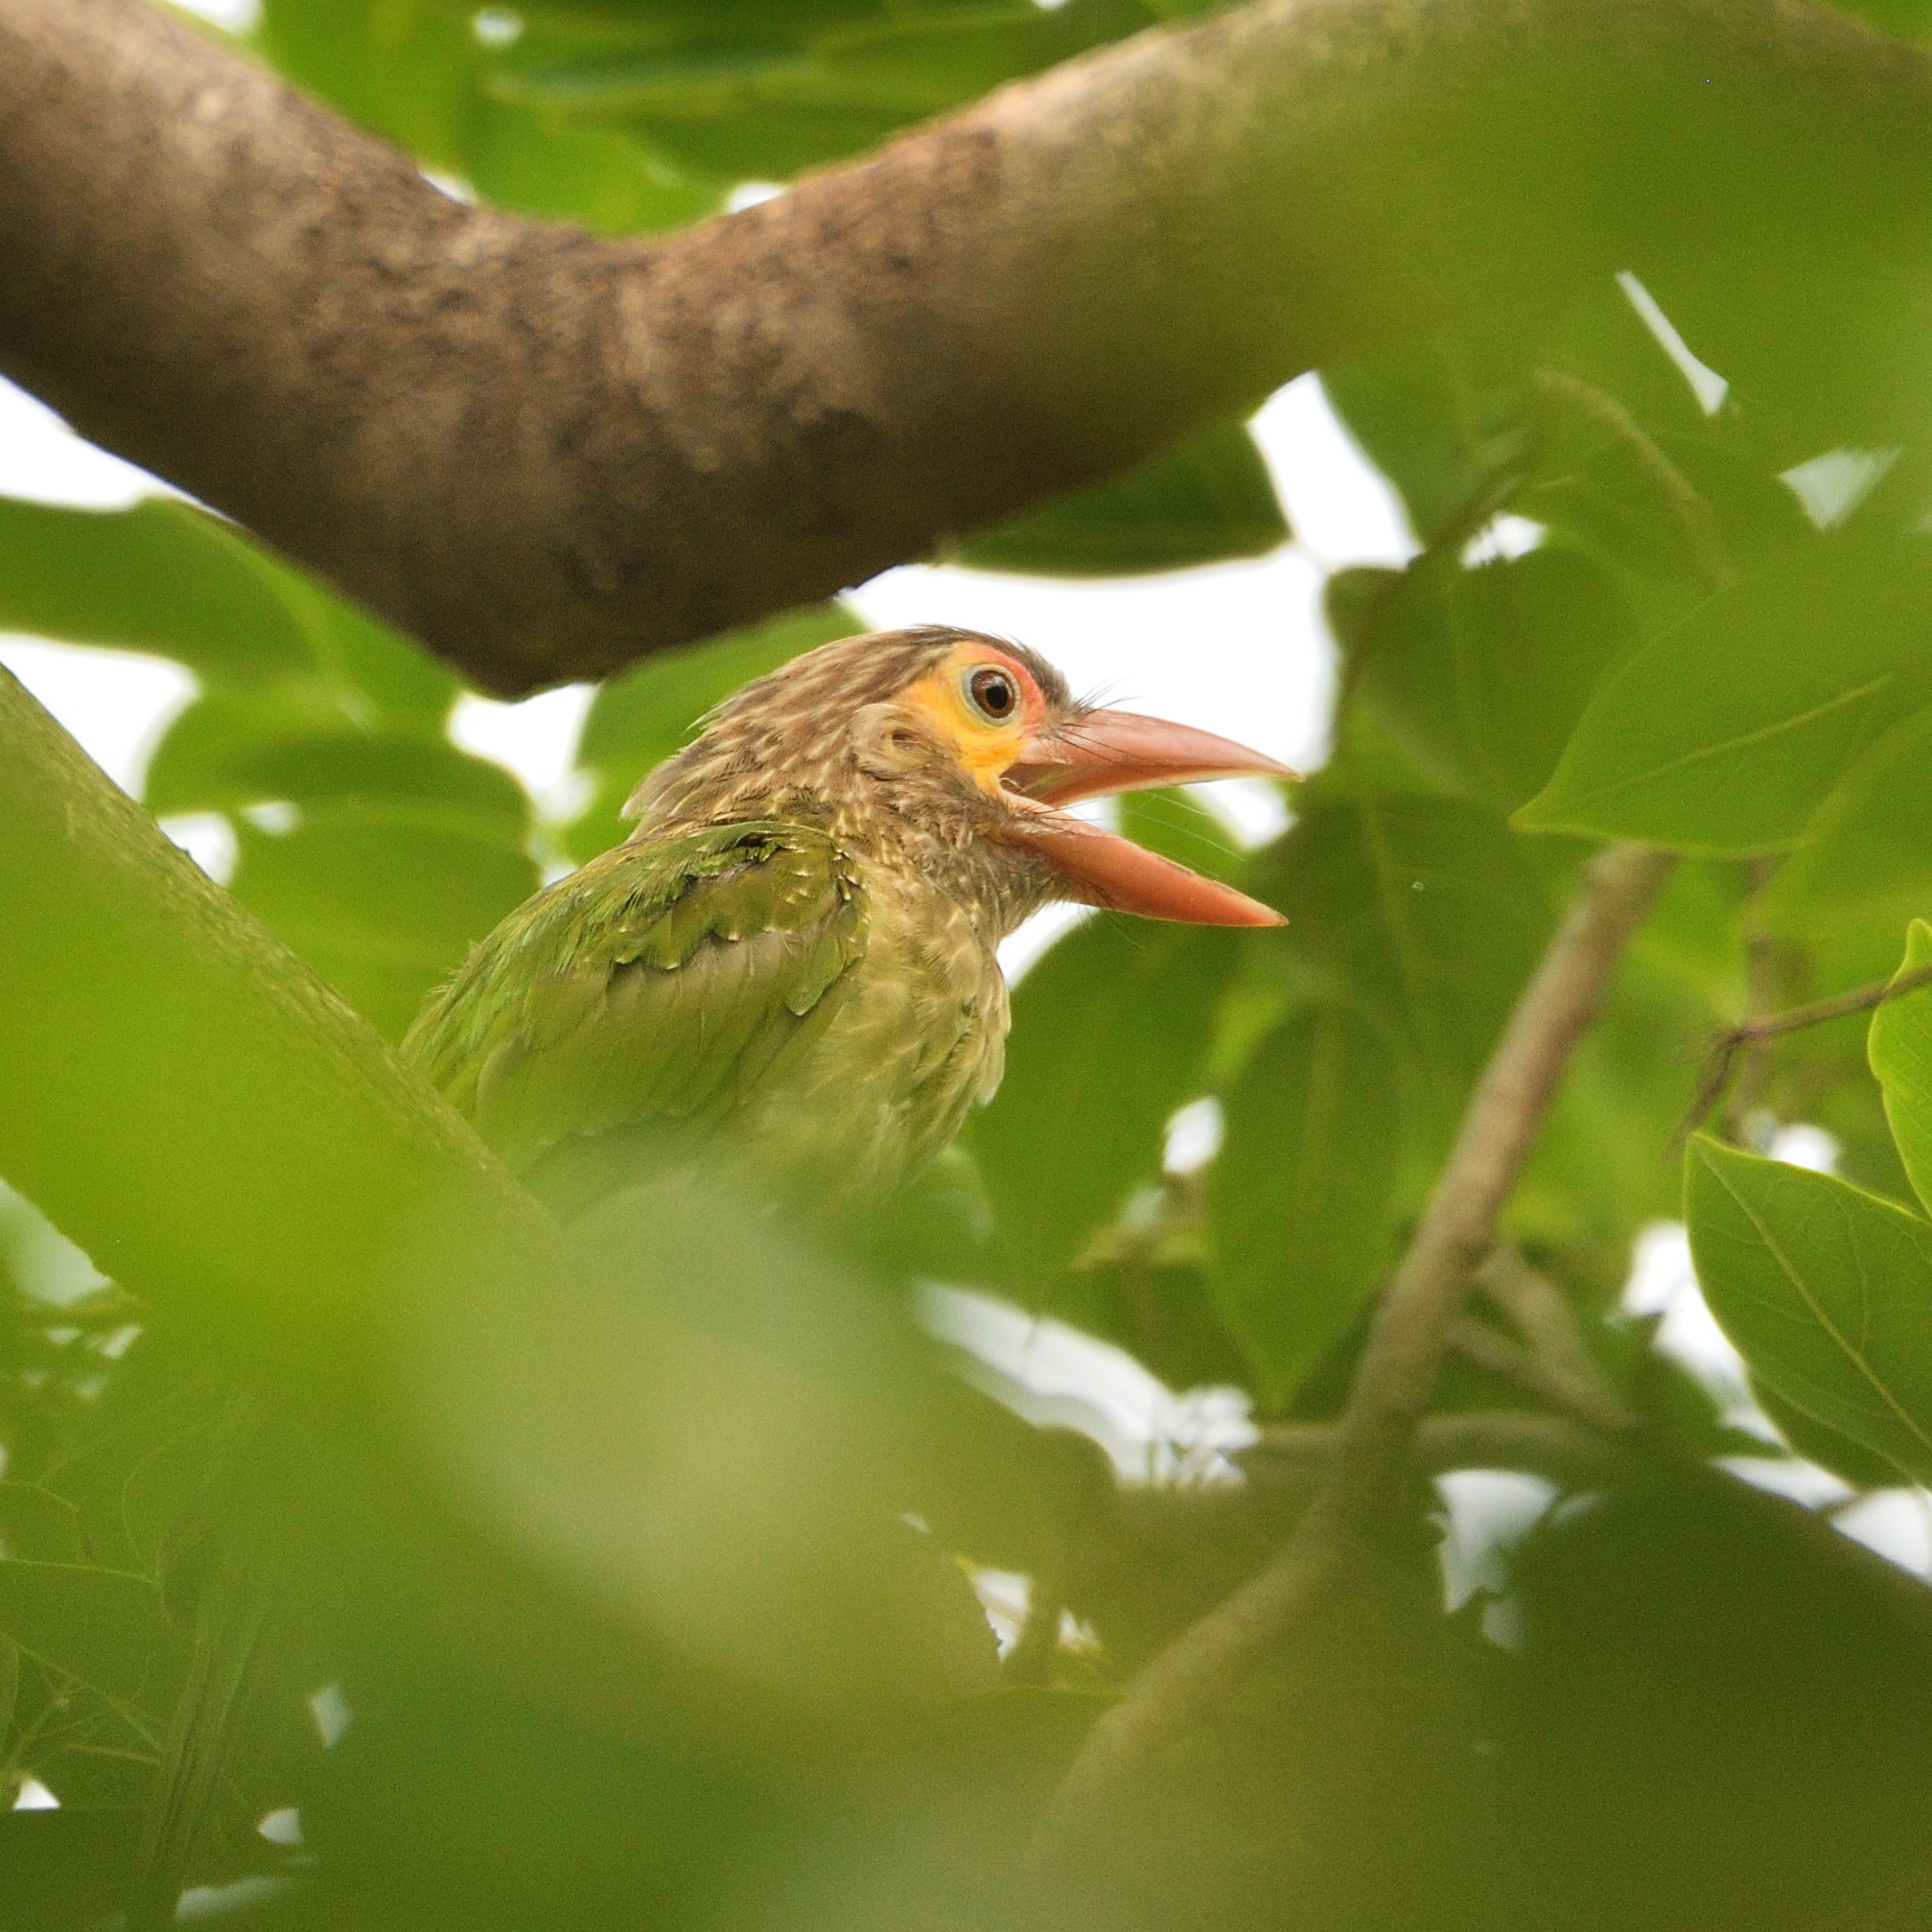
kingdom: Animalia
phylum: Chordata
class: Aves
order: Piciformes
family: Megalaimidae
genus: Psilopogon
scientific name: Psilopogon zeylanicus
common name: Brown-headed barbet
